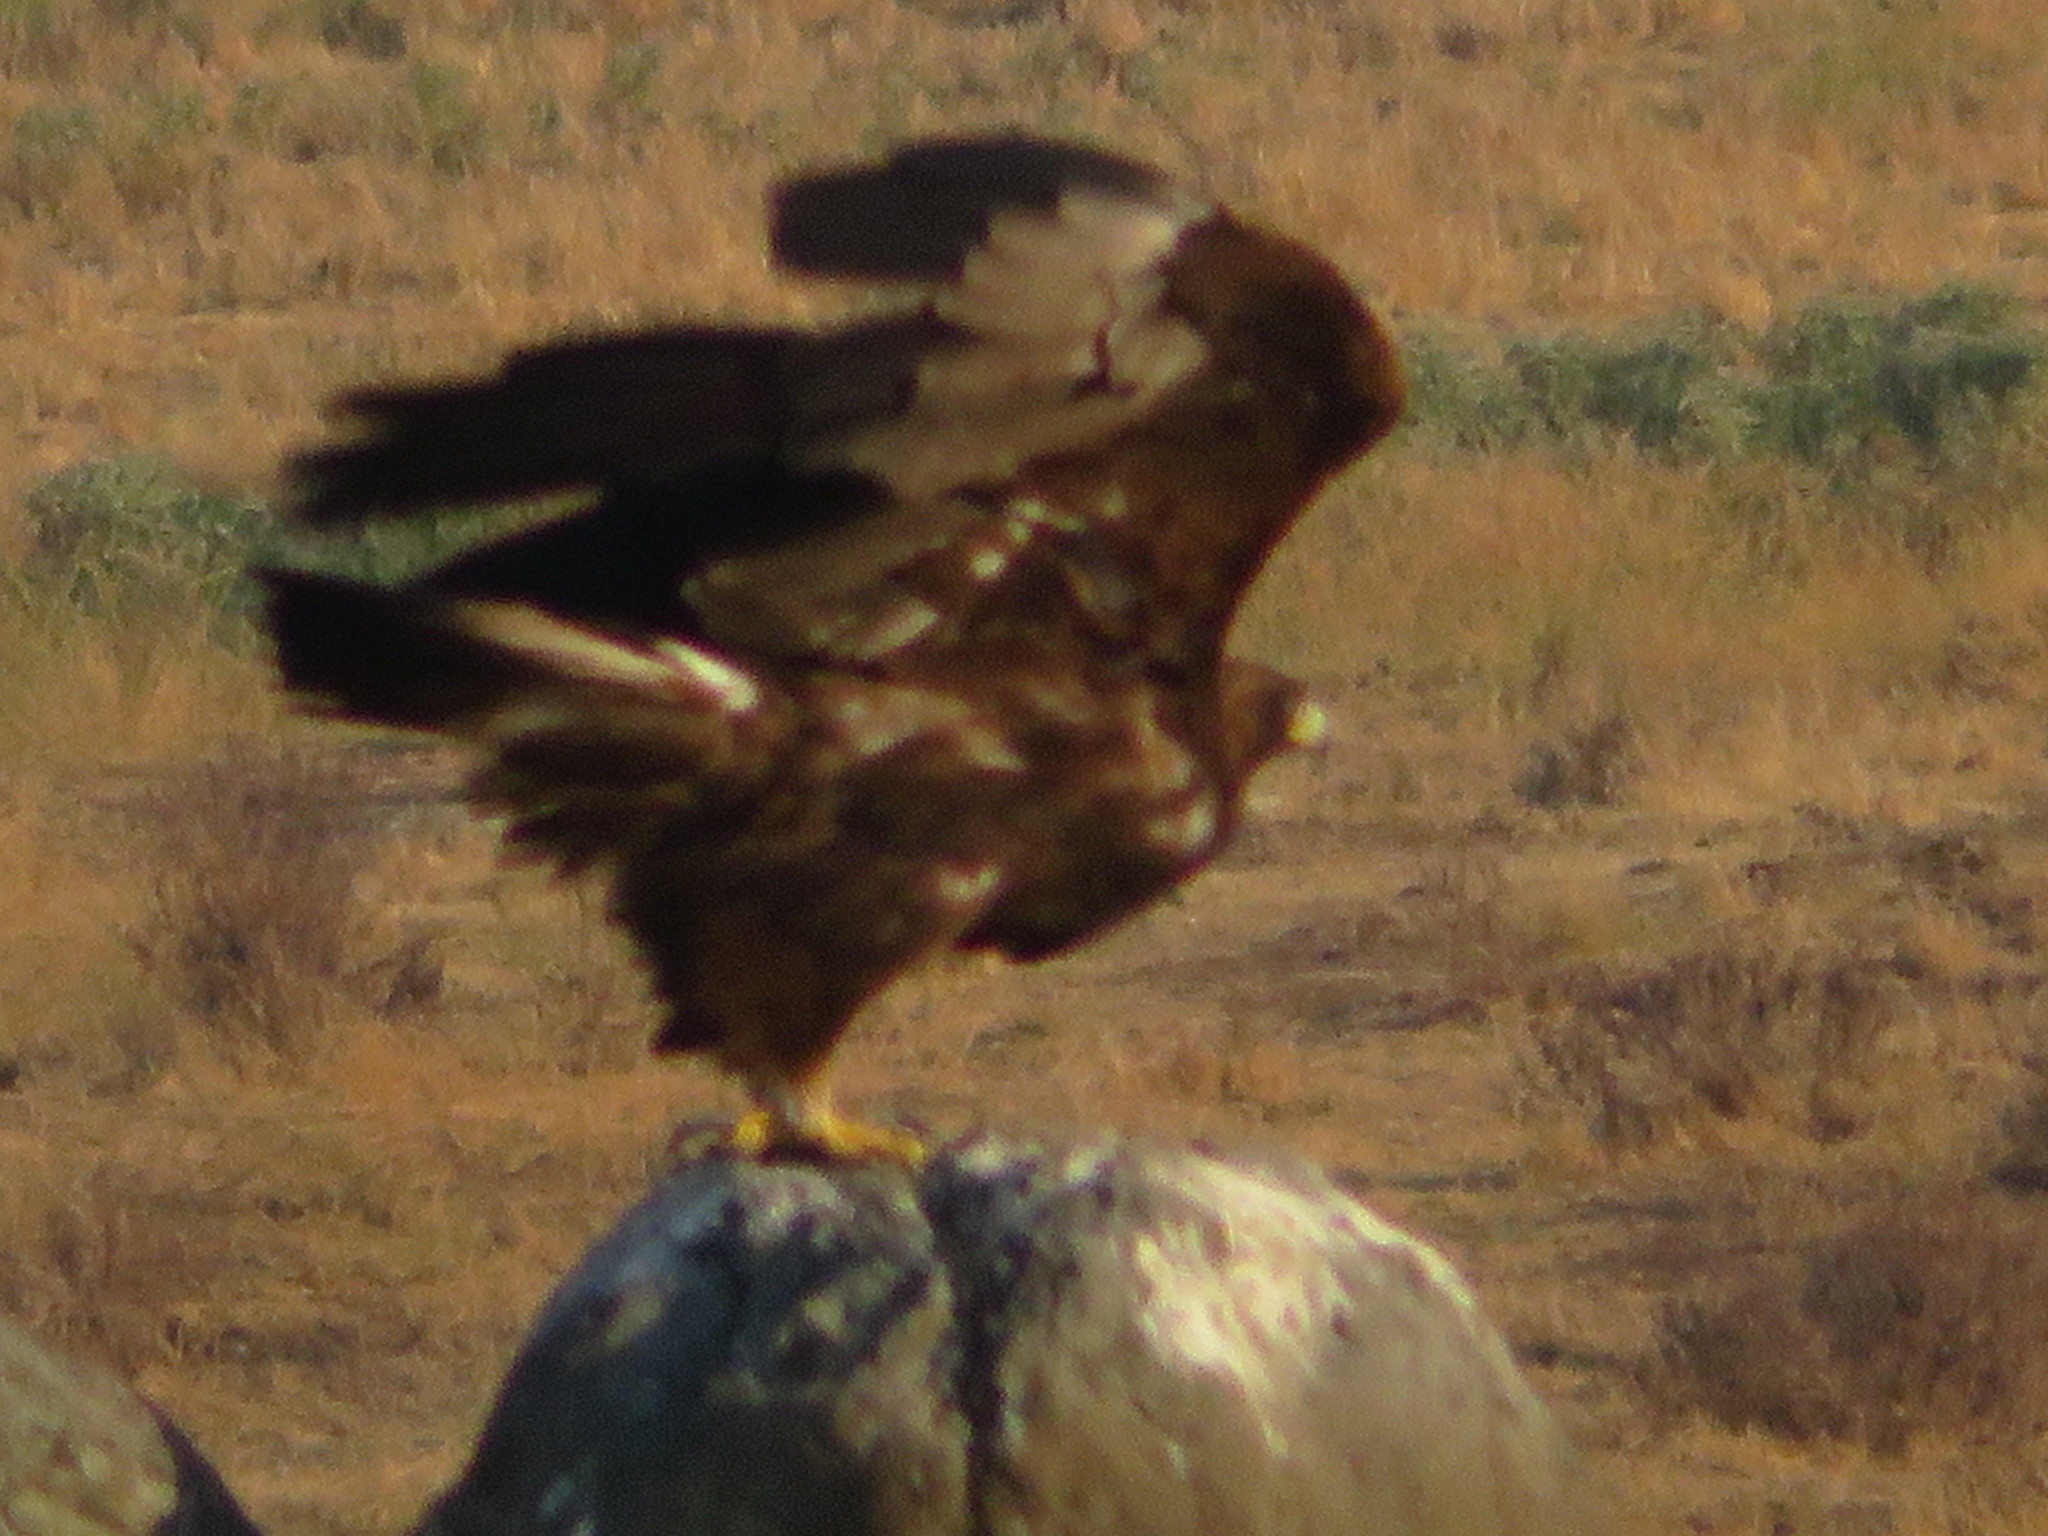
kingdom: Animalia
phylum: Chordata
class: Aves
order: Accipitriformes
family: Accipitridae
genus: Aquila
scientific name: Aquila chrysaetos
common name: Golden eagle
